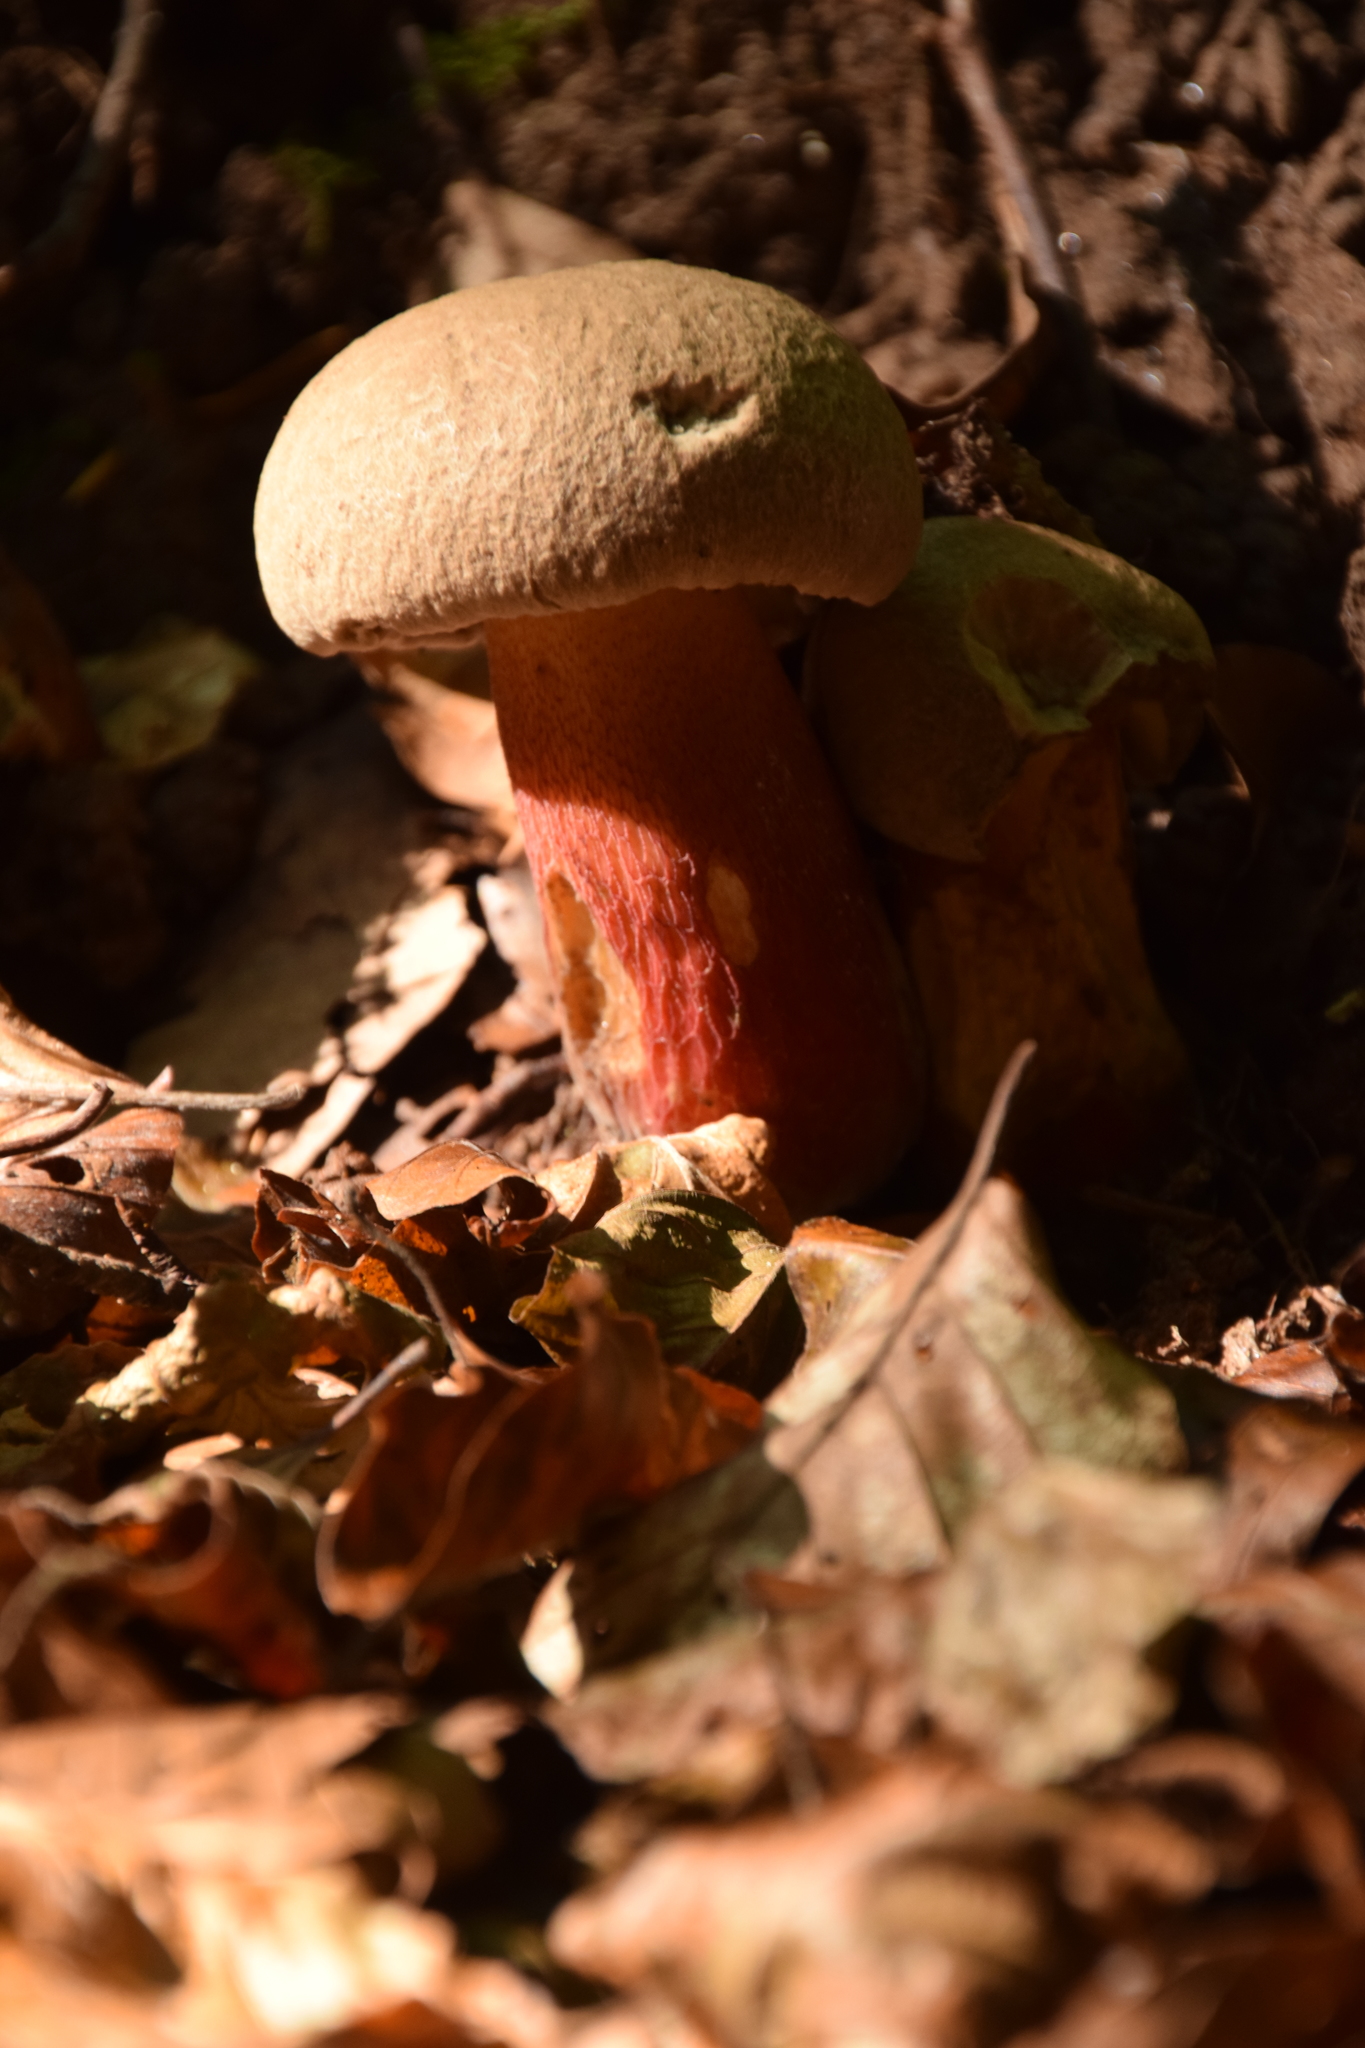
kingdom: Fungi
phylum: Basidiomycota
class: Agaricomycetes
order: Boletales
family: Boletaceae
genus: Caloboletus
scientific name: Caloboletus calopus
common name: Bitter beech bolete
